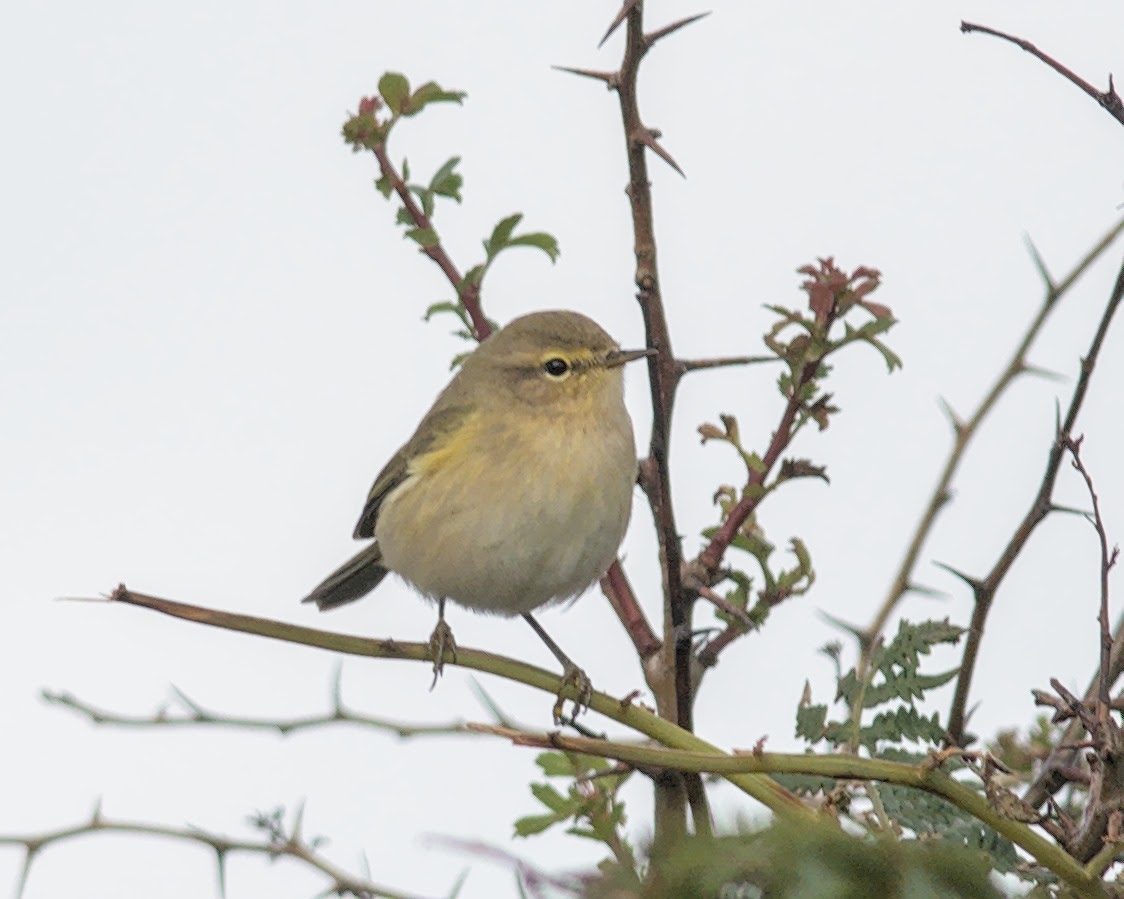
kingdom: Animalia
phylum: Chordata
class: Aves
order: Passeriformes
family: Phylloscopidae
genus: Phylloscopus
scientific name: Phylloscopus collybita
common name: Common chiffchaff
